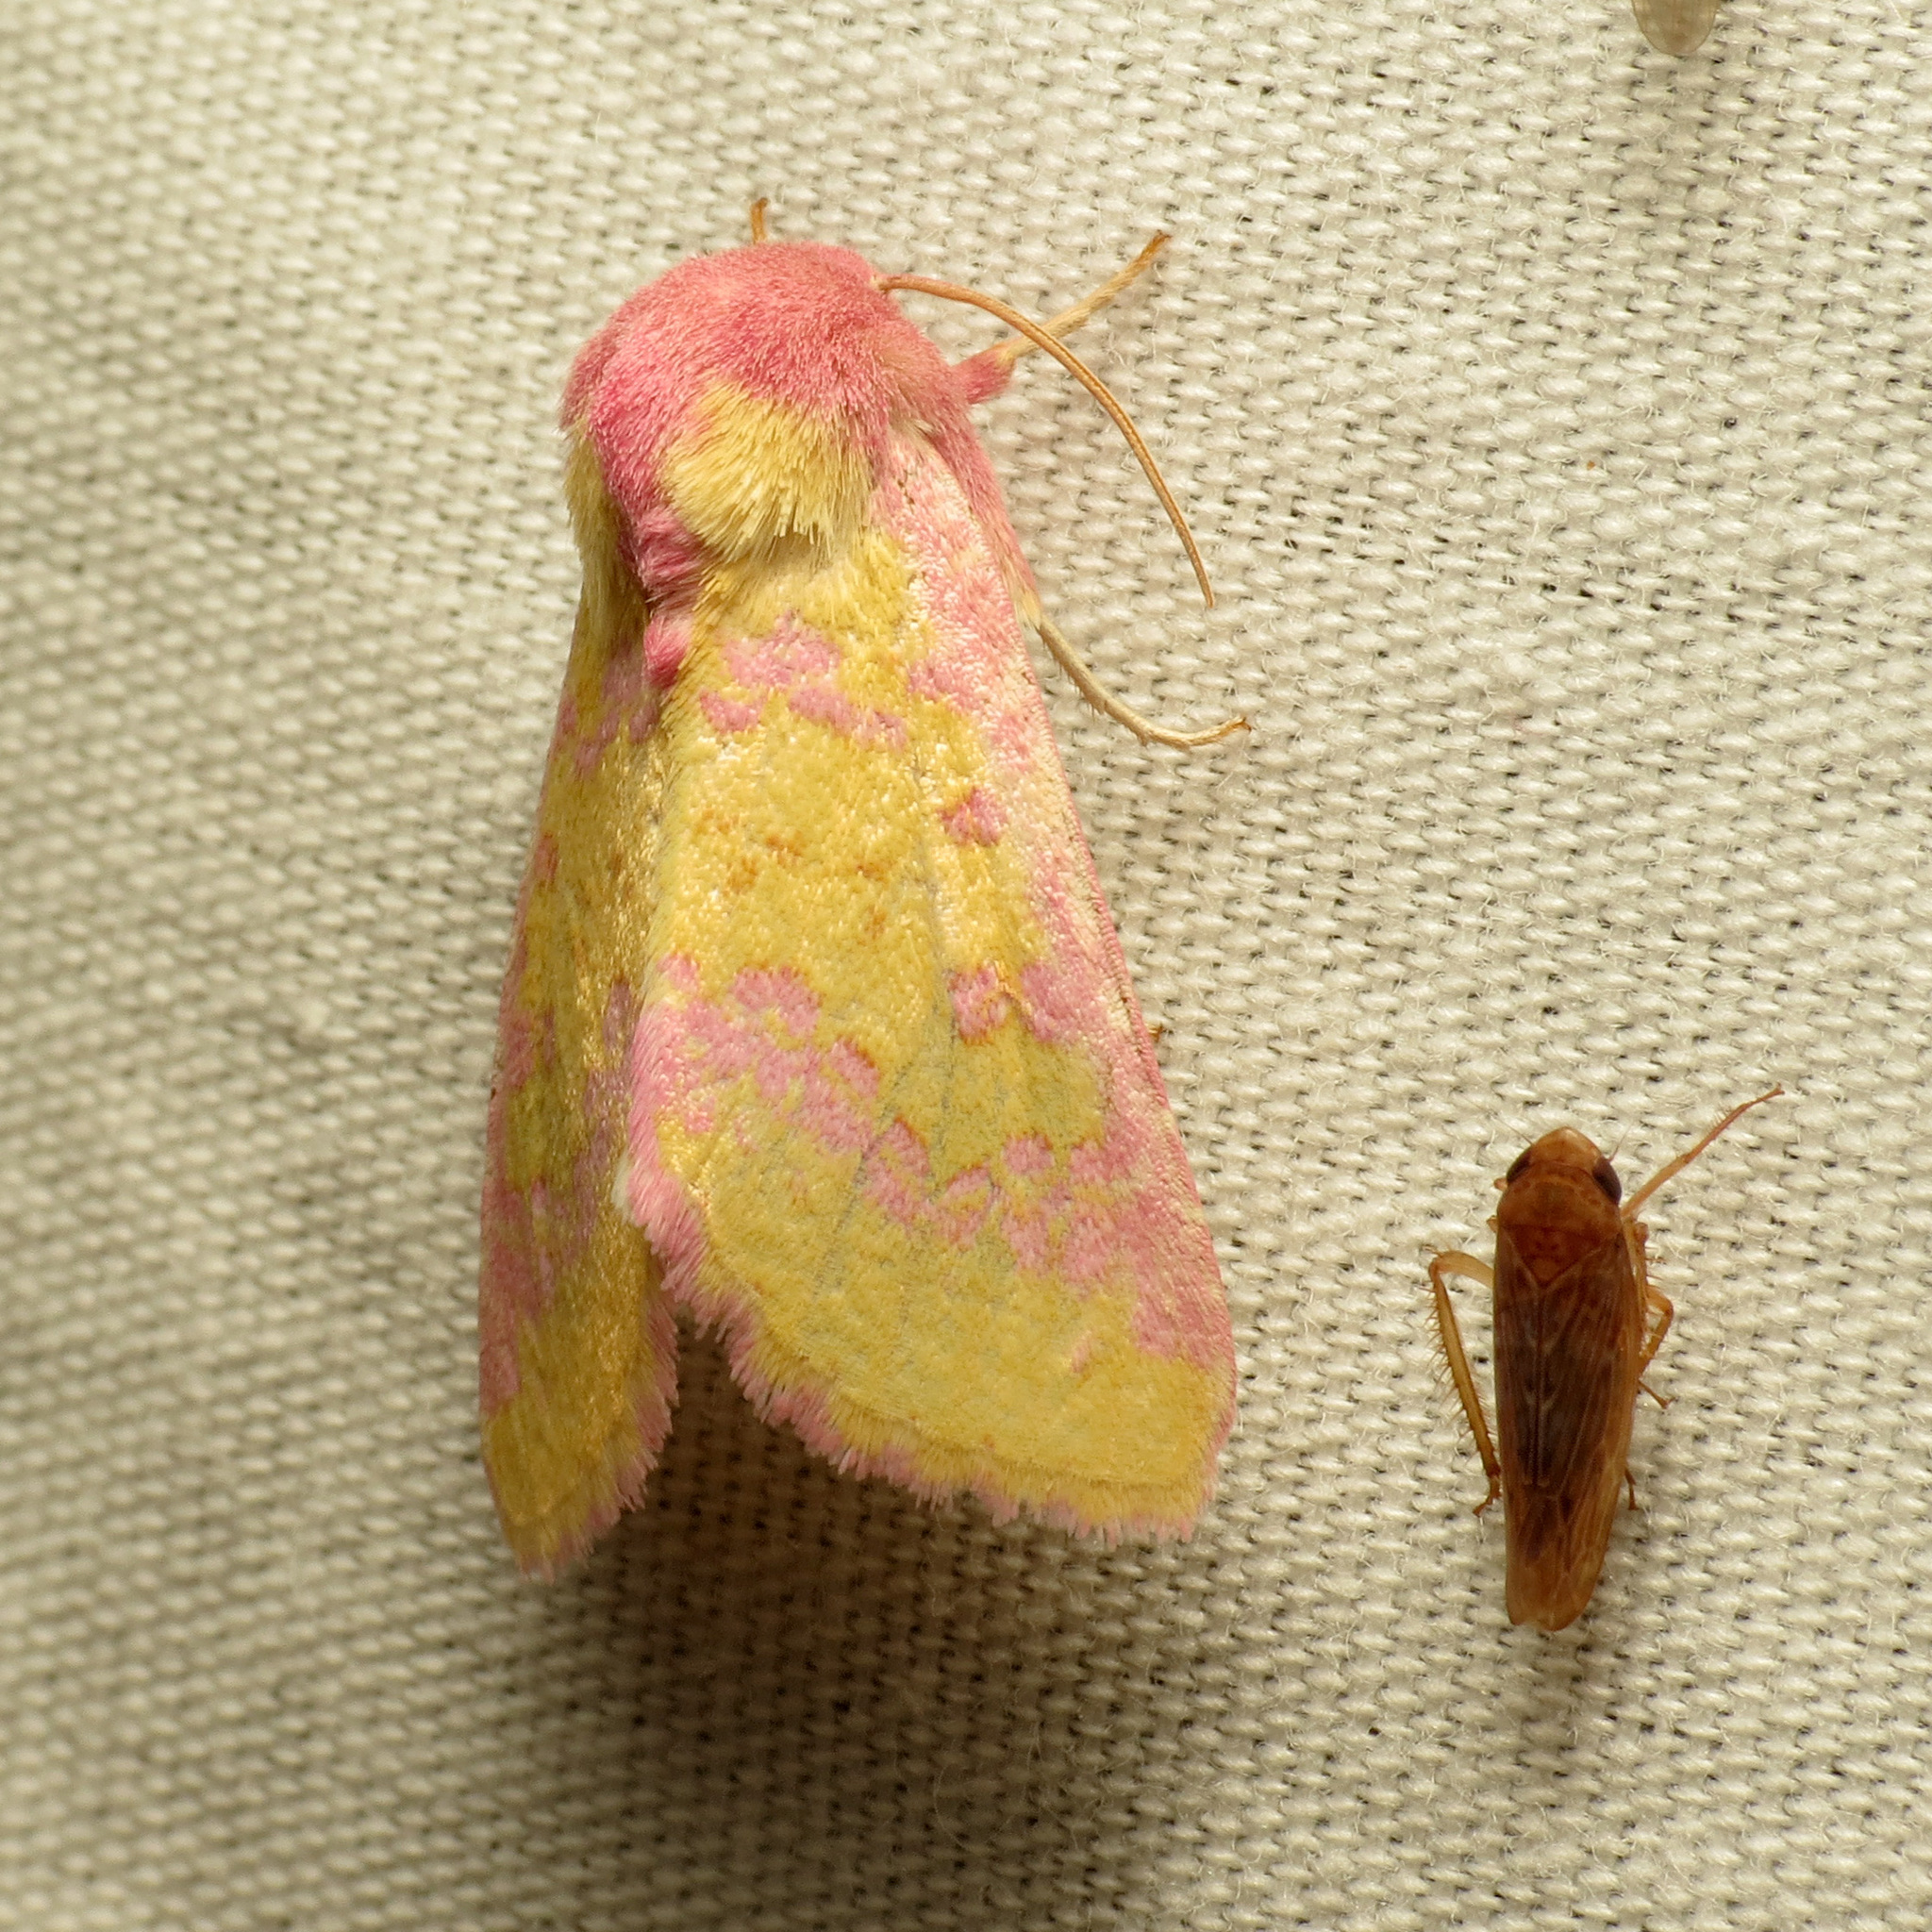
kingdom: Animalia
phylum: Arthropoda
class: Insecta
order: Lepidoptera
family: Noctuidae
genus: Psectrotarsia
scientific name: Psectrotarsia suavis
